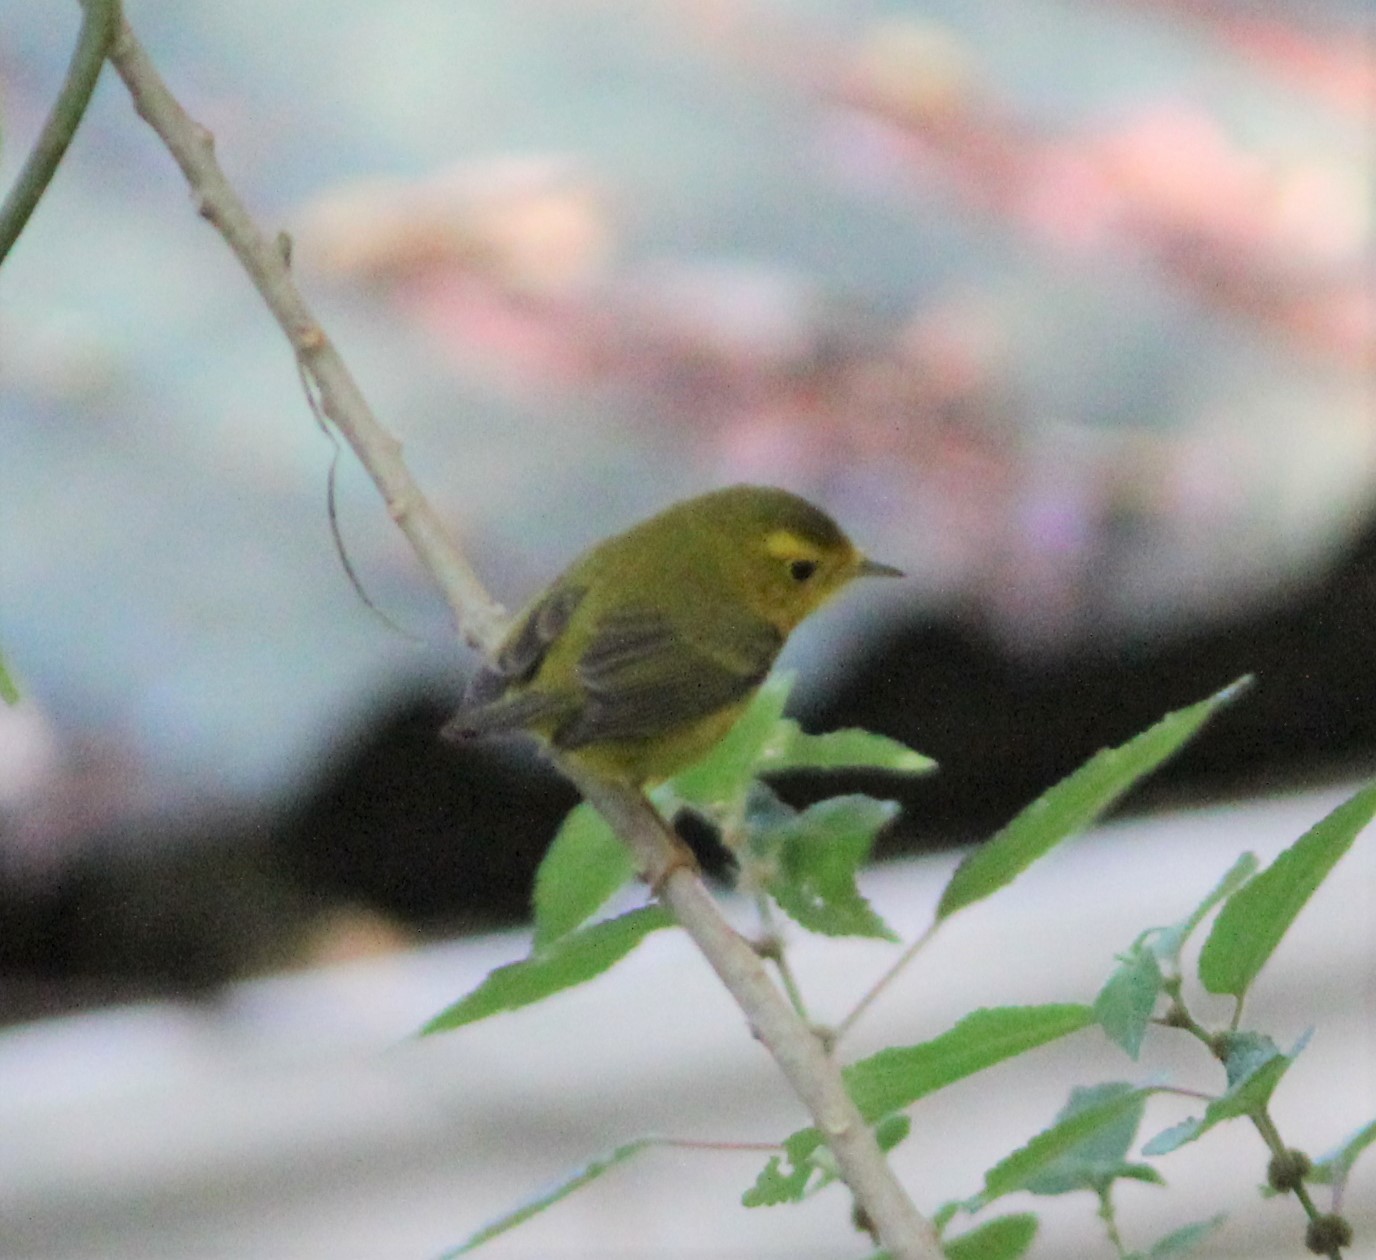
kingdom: Animalia
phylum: Chordata
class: Aves
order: Passeriformes
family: Parulidae
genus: Cardellina
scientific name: Cardellina pusilla
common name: Wilson's warbler
